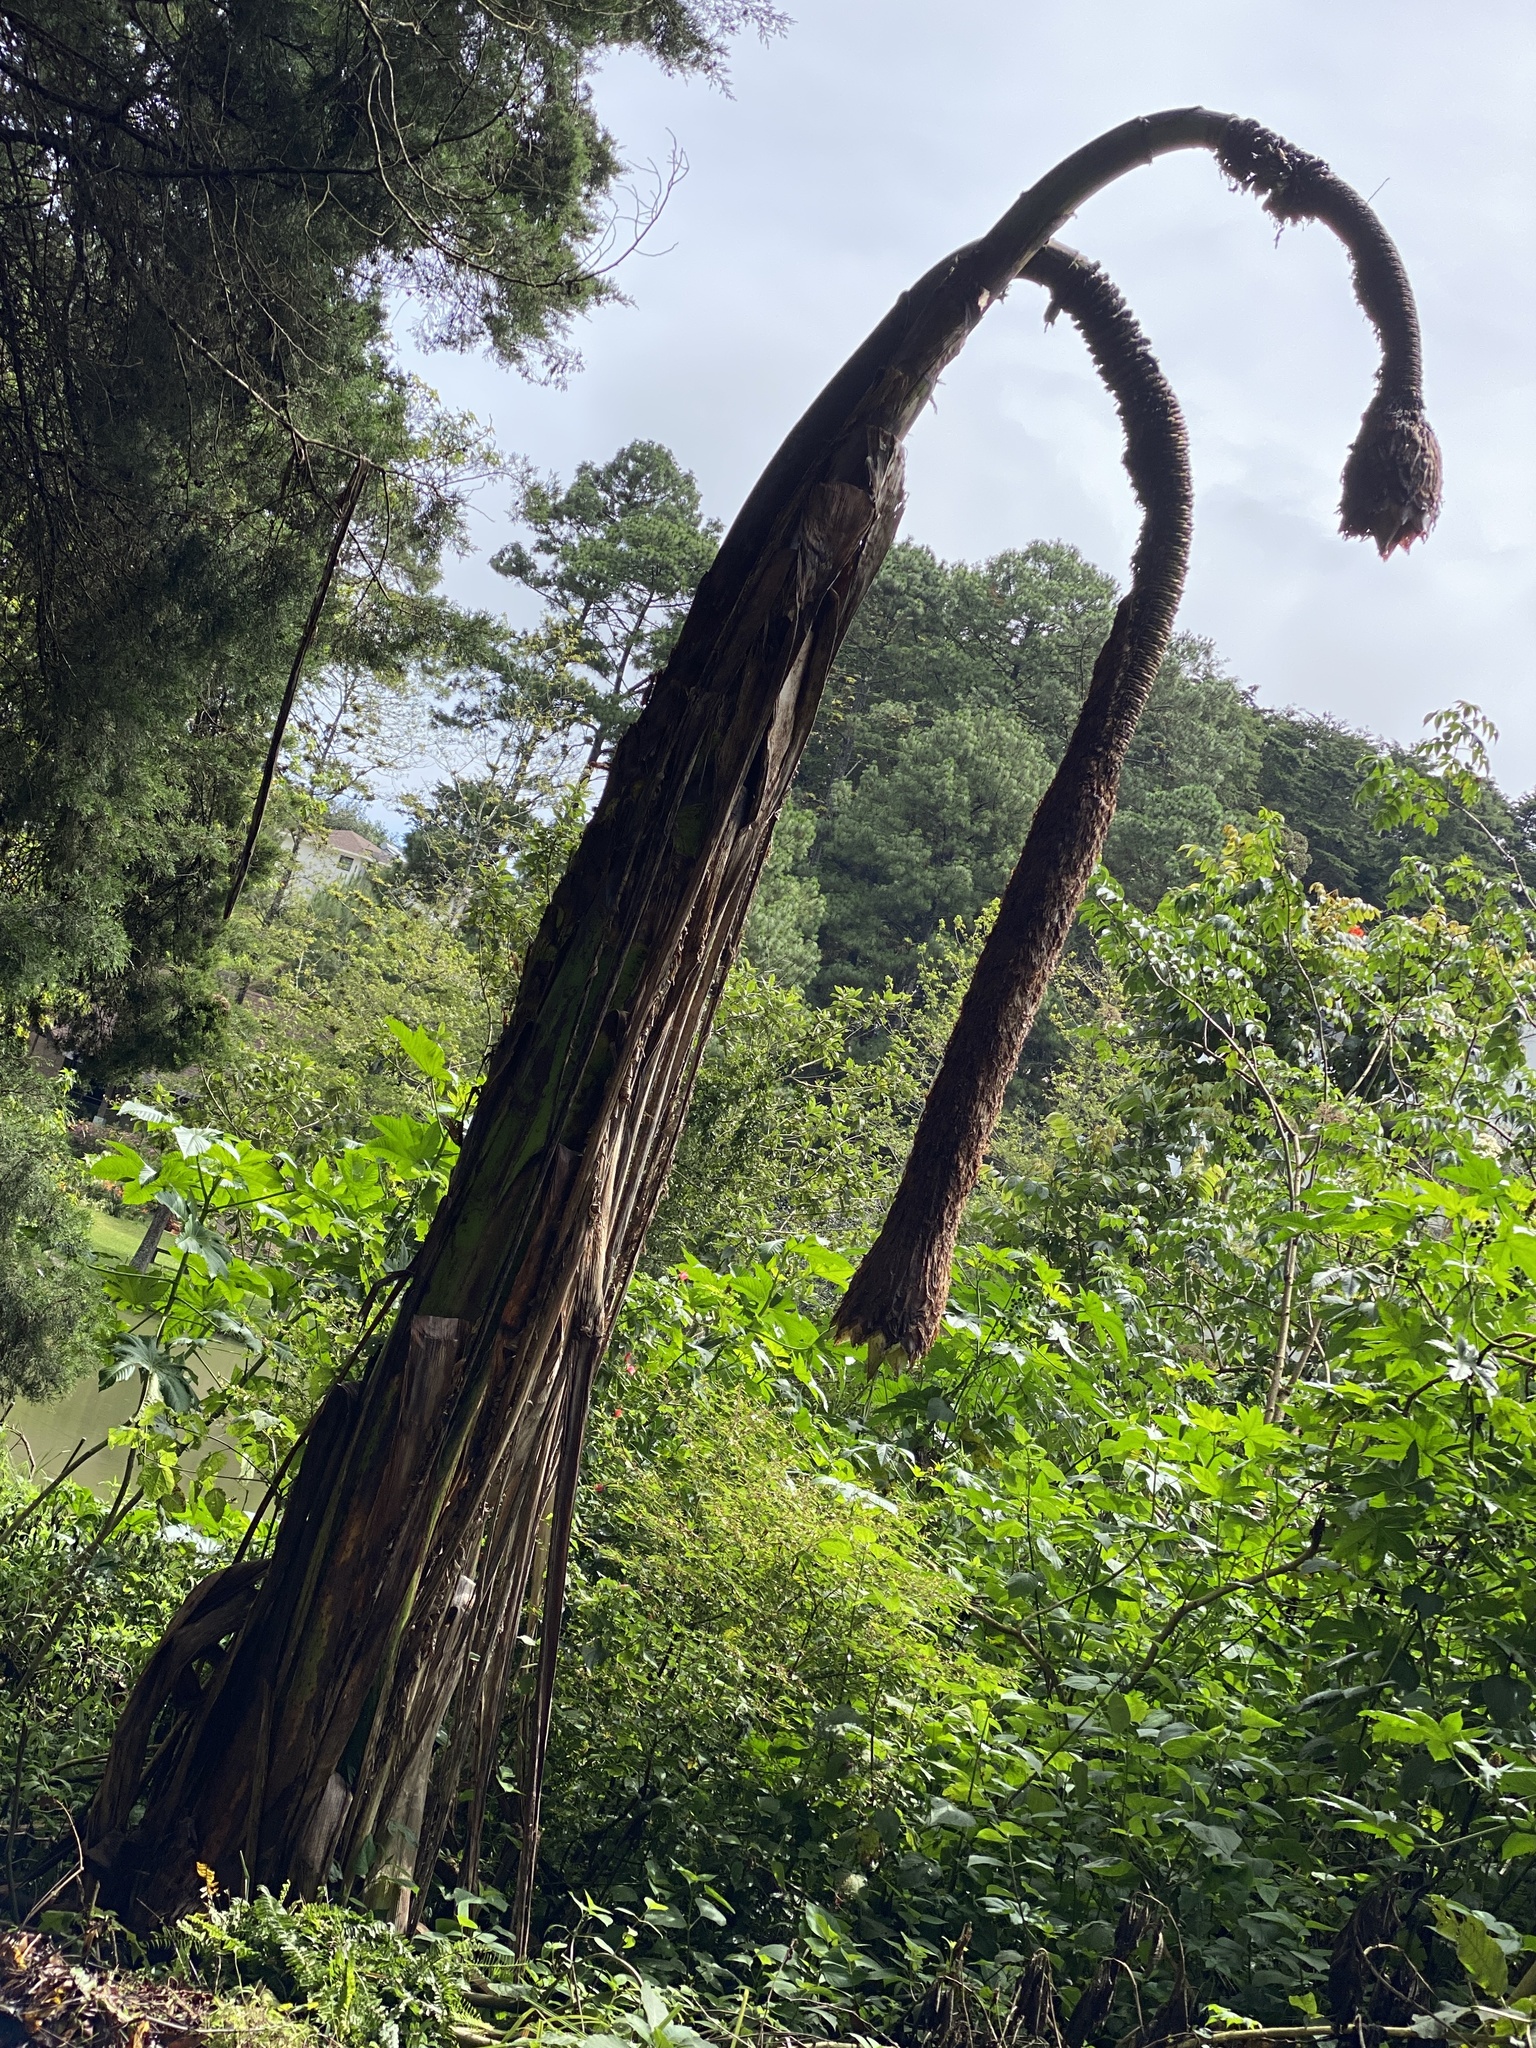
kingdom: Plantae
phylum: Tracheophyta
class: Liliopsida
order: Zingiberales
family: Musaceae
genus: Ensete
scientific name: Ensete ventricosum
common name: Abyssinian banana
